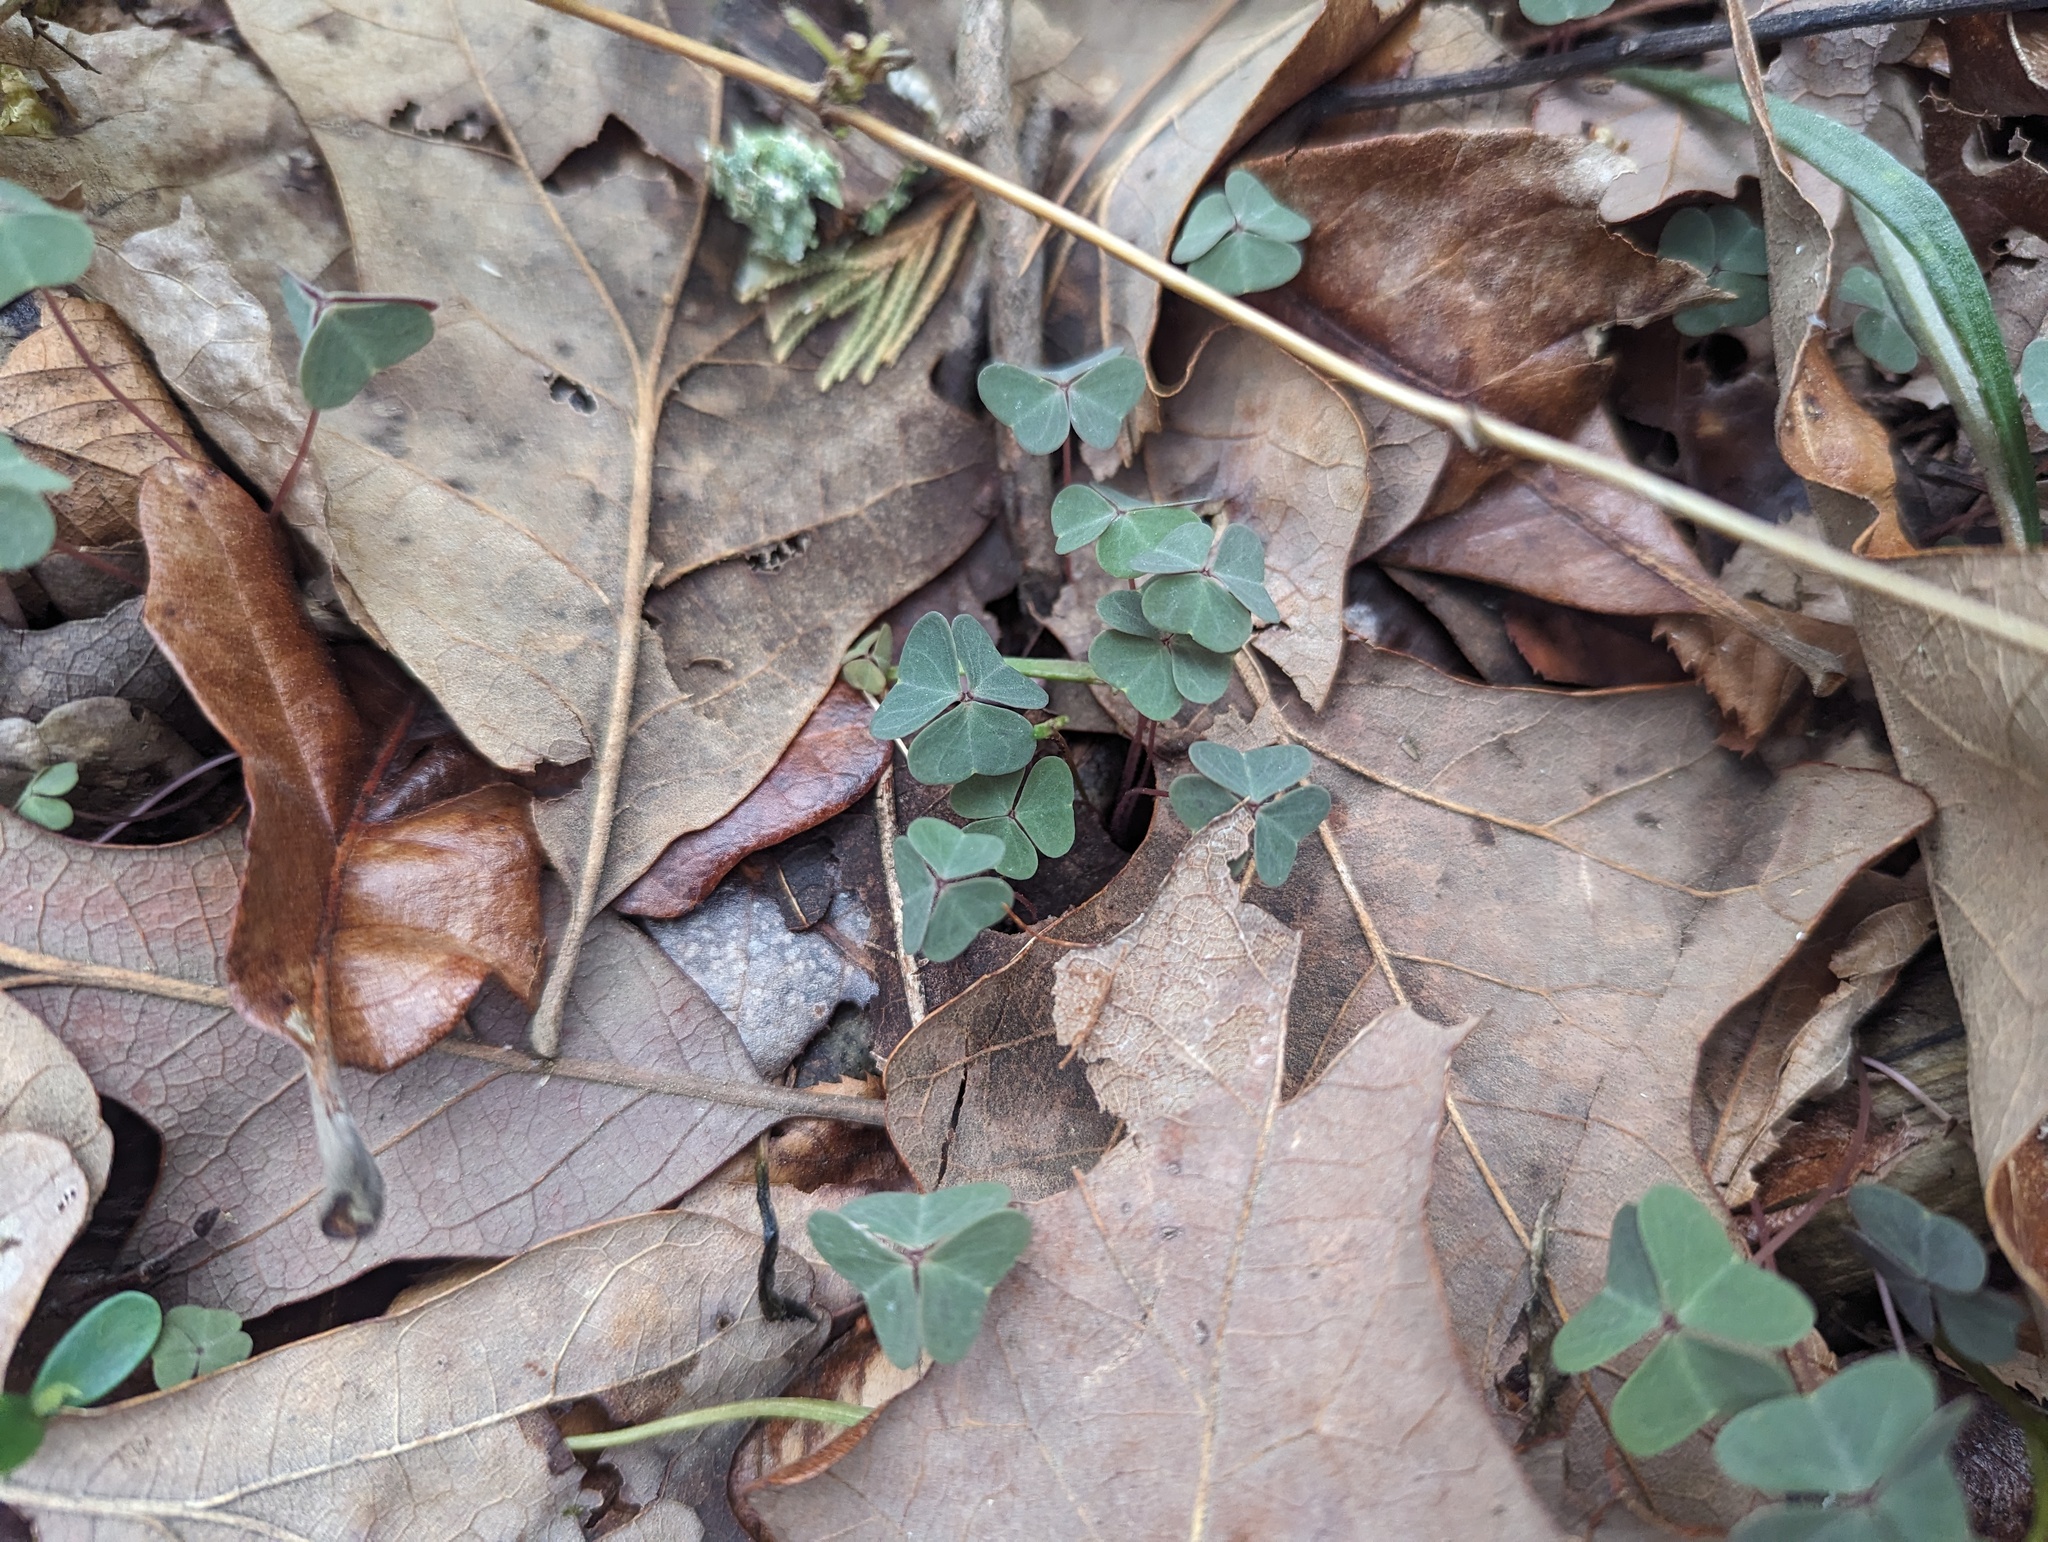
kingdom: Plantae
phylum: Tracheophyta
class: Magnoliopsida
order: Oxalidales
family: Oxalidaceae
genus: Oxalis
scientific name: Oxalis violacea
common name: Violet wood-sorrel
